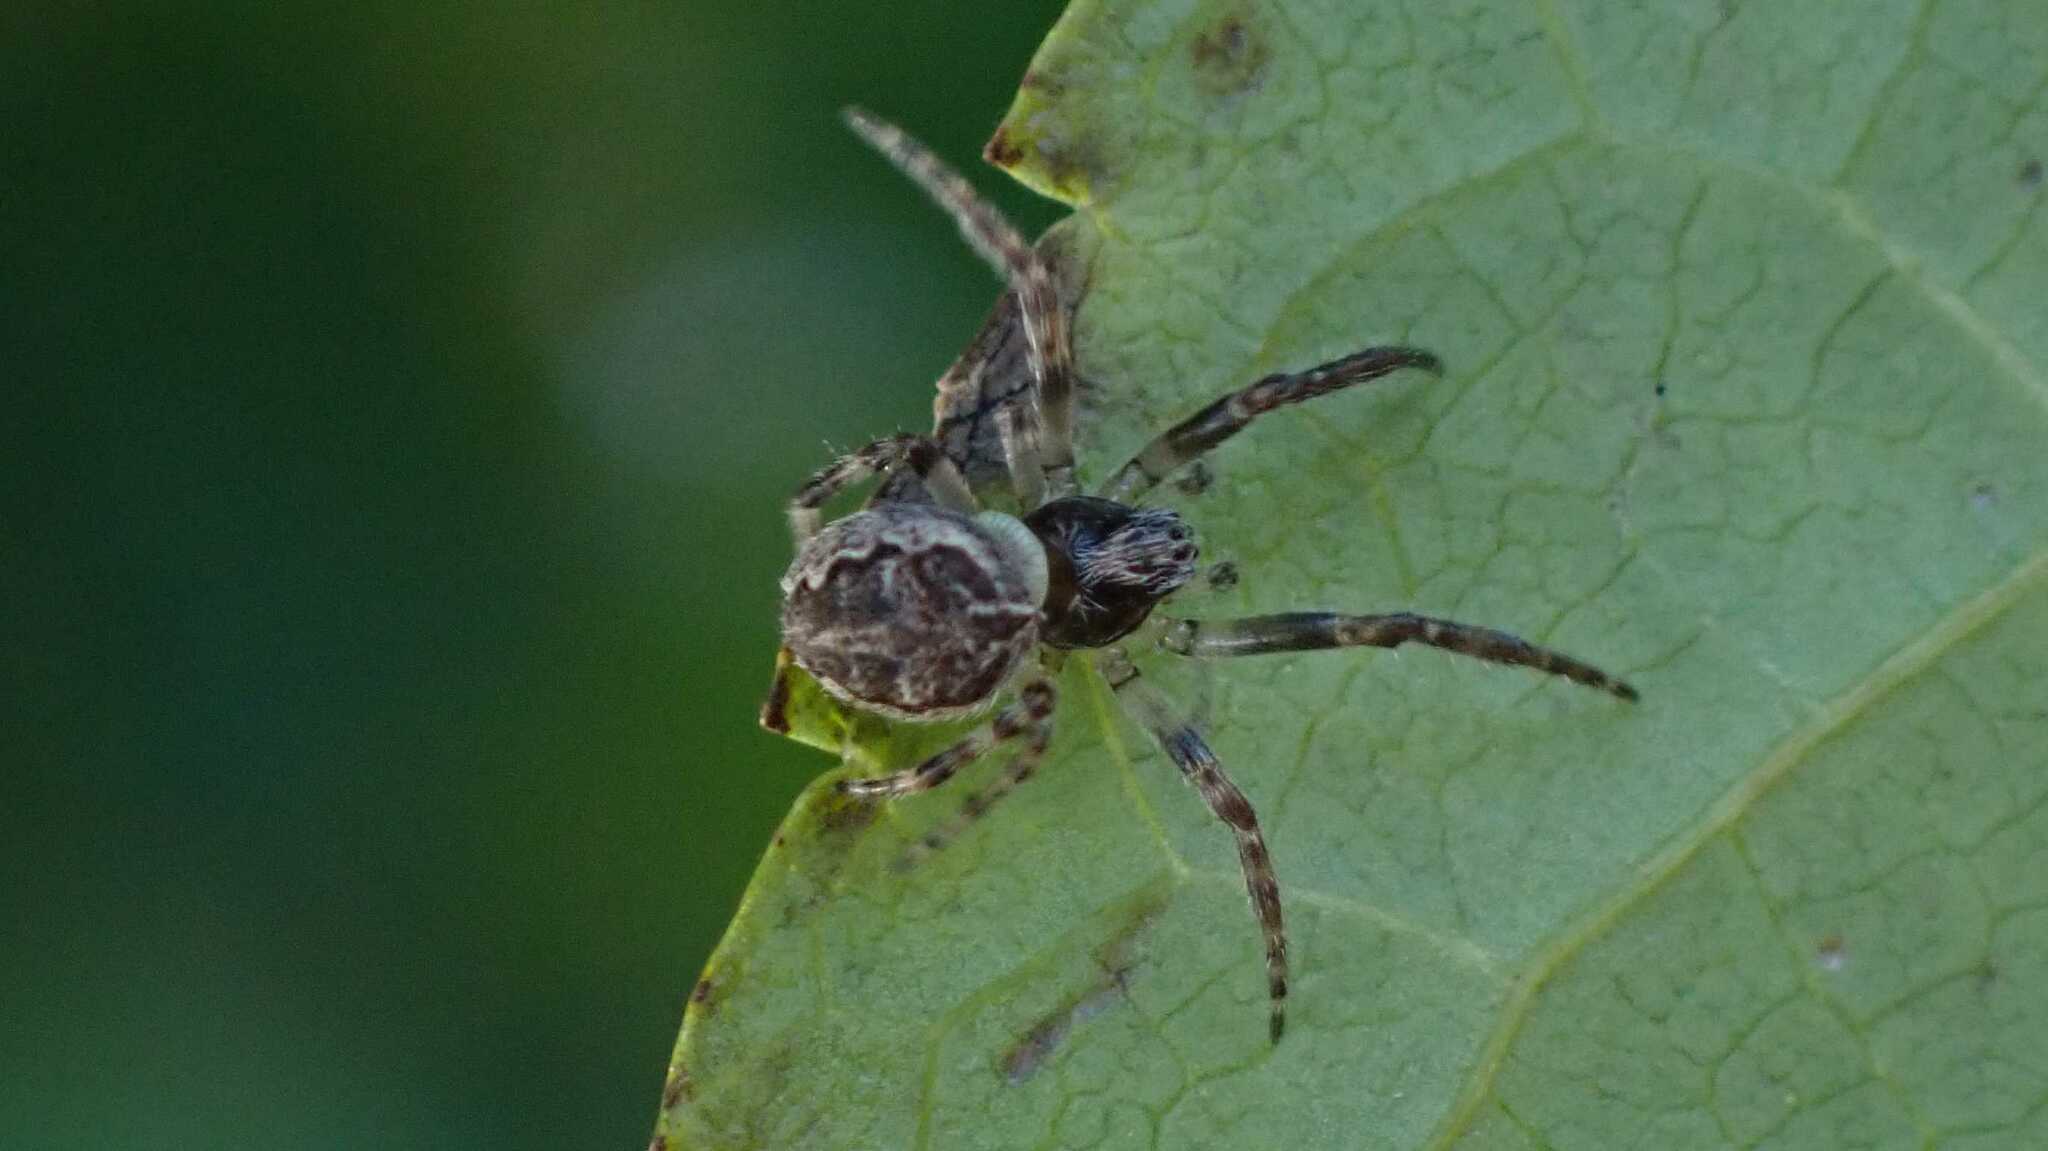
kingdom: Animalia
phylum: Arthropoda
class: Arachnida
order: Araneae
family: Araneidae
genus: Larinioides
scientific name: Larinioides sclopetarius
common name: Bridge orbweaver
